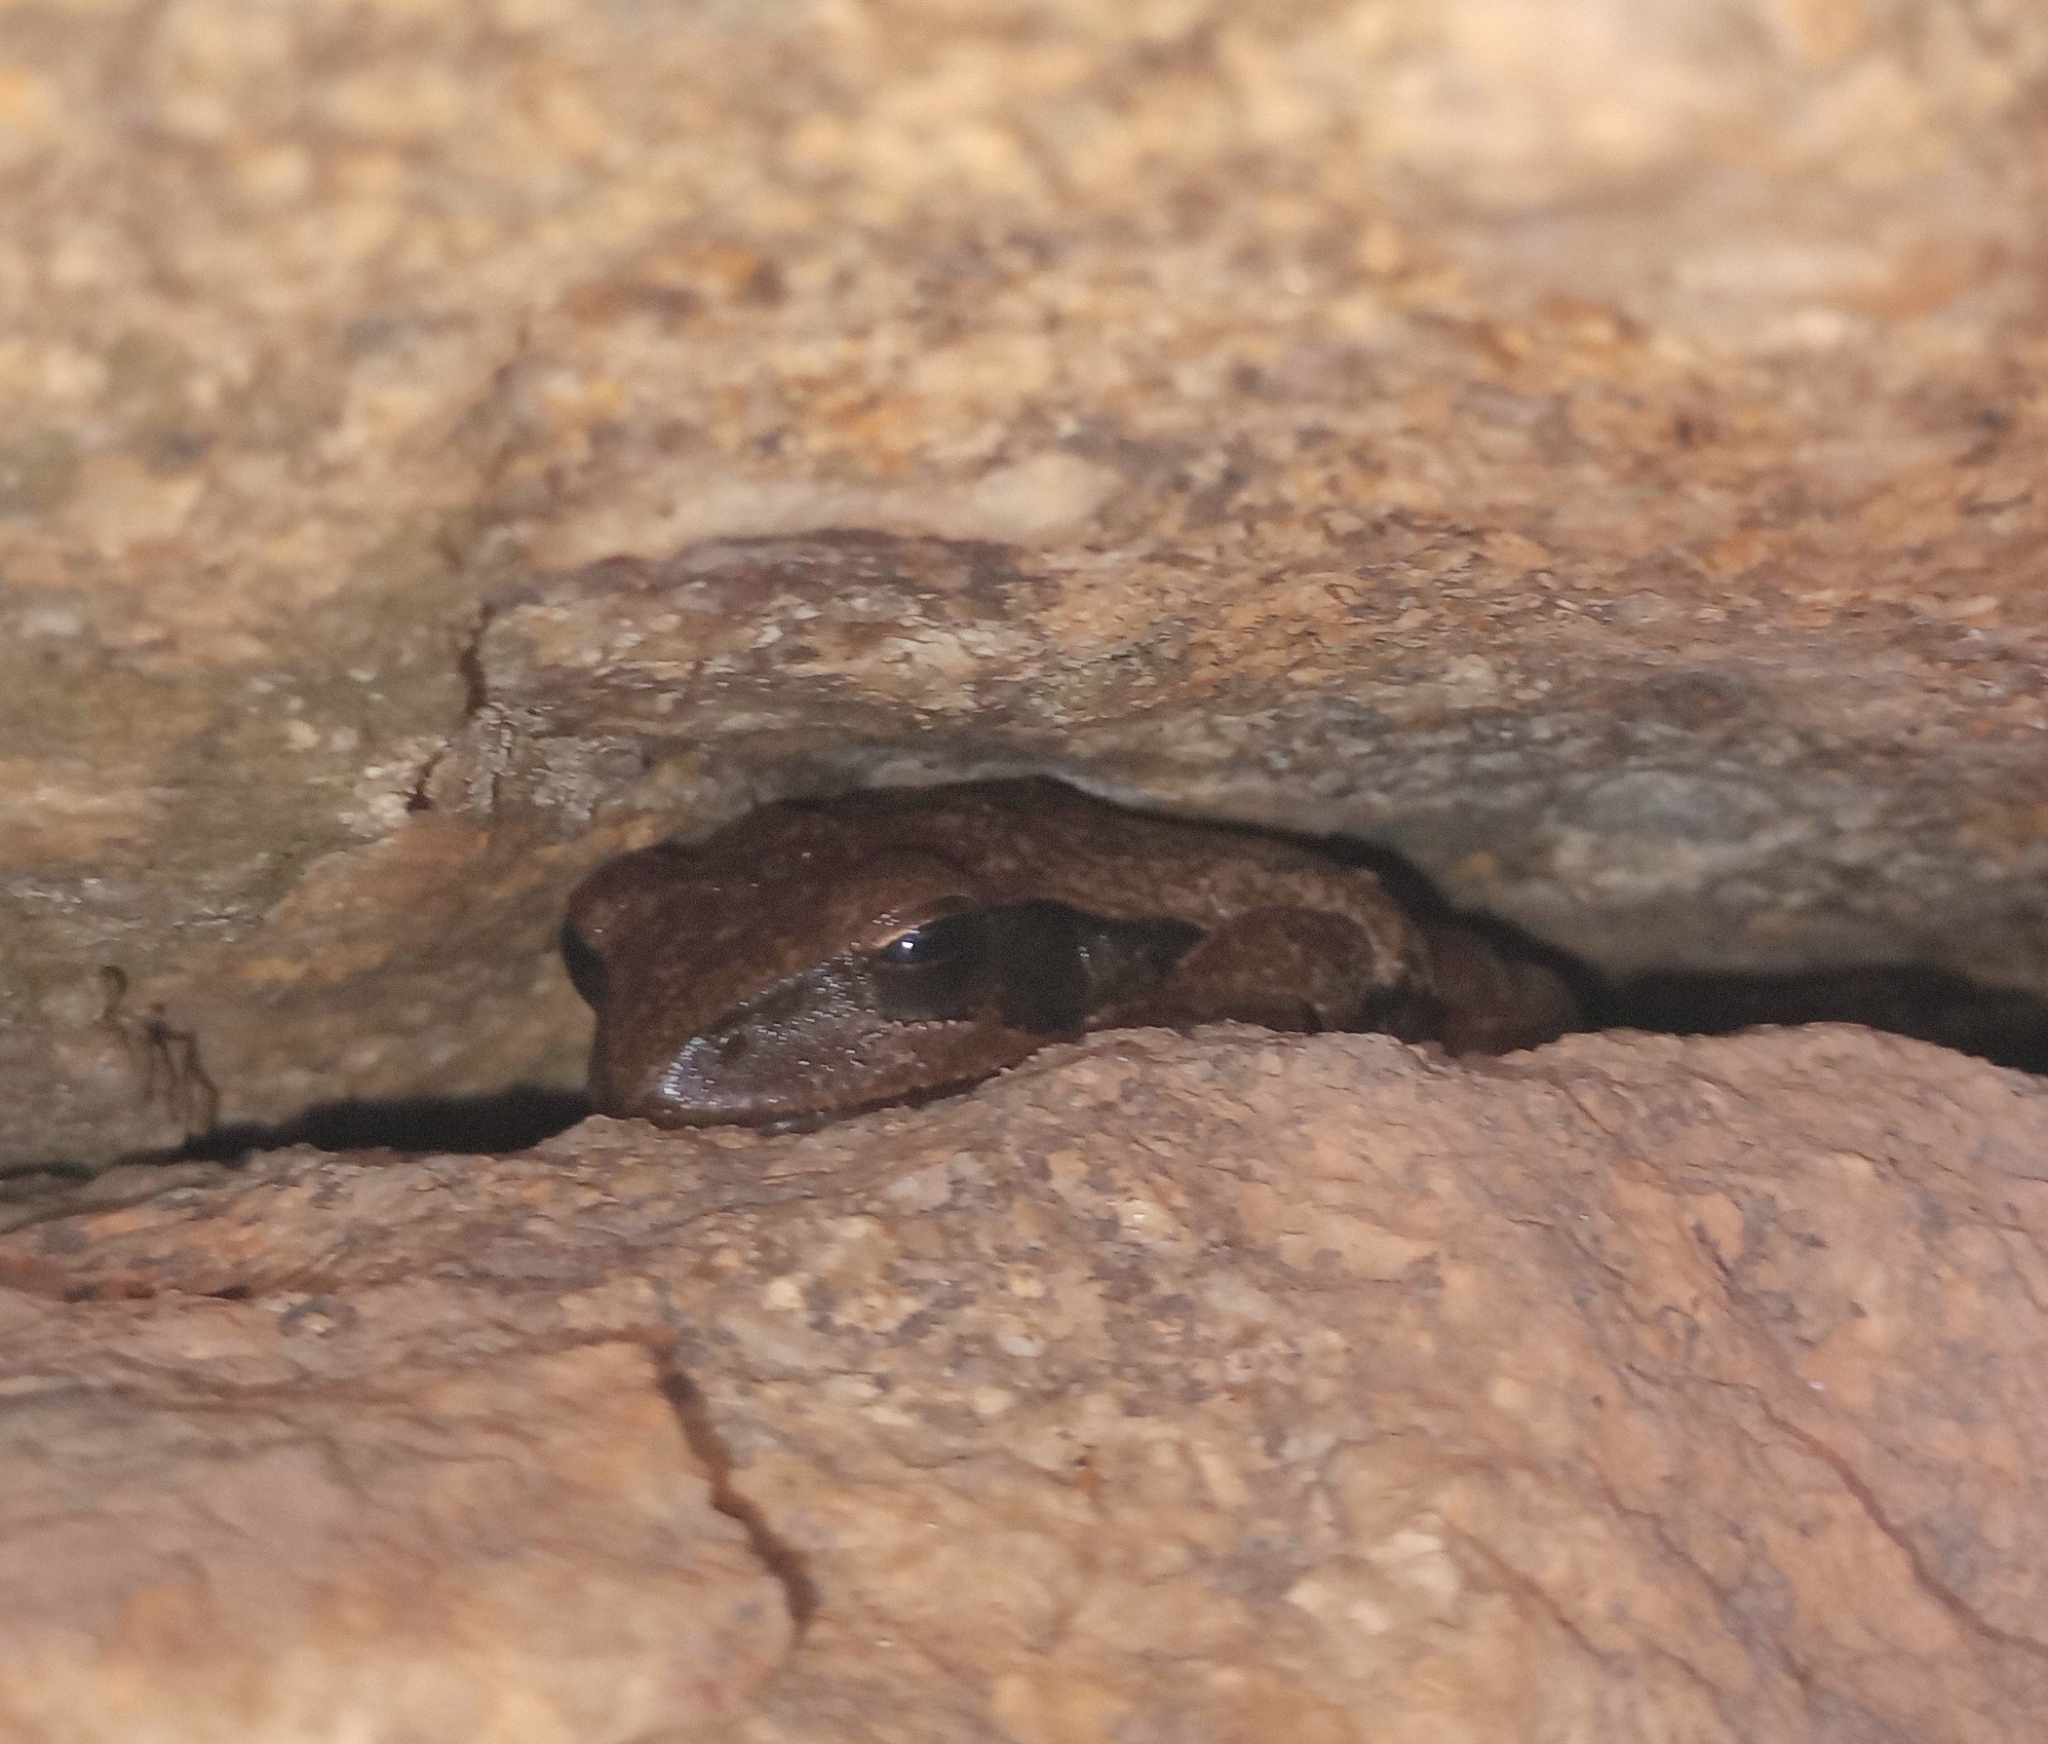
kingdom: Animalia
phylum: Chordata
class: Amphibia
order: Anura
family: Rhacophoridae
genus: Polypedates
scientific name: Polypedates maculatus
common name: Himalayan tree frog
